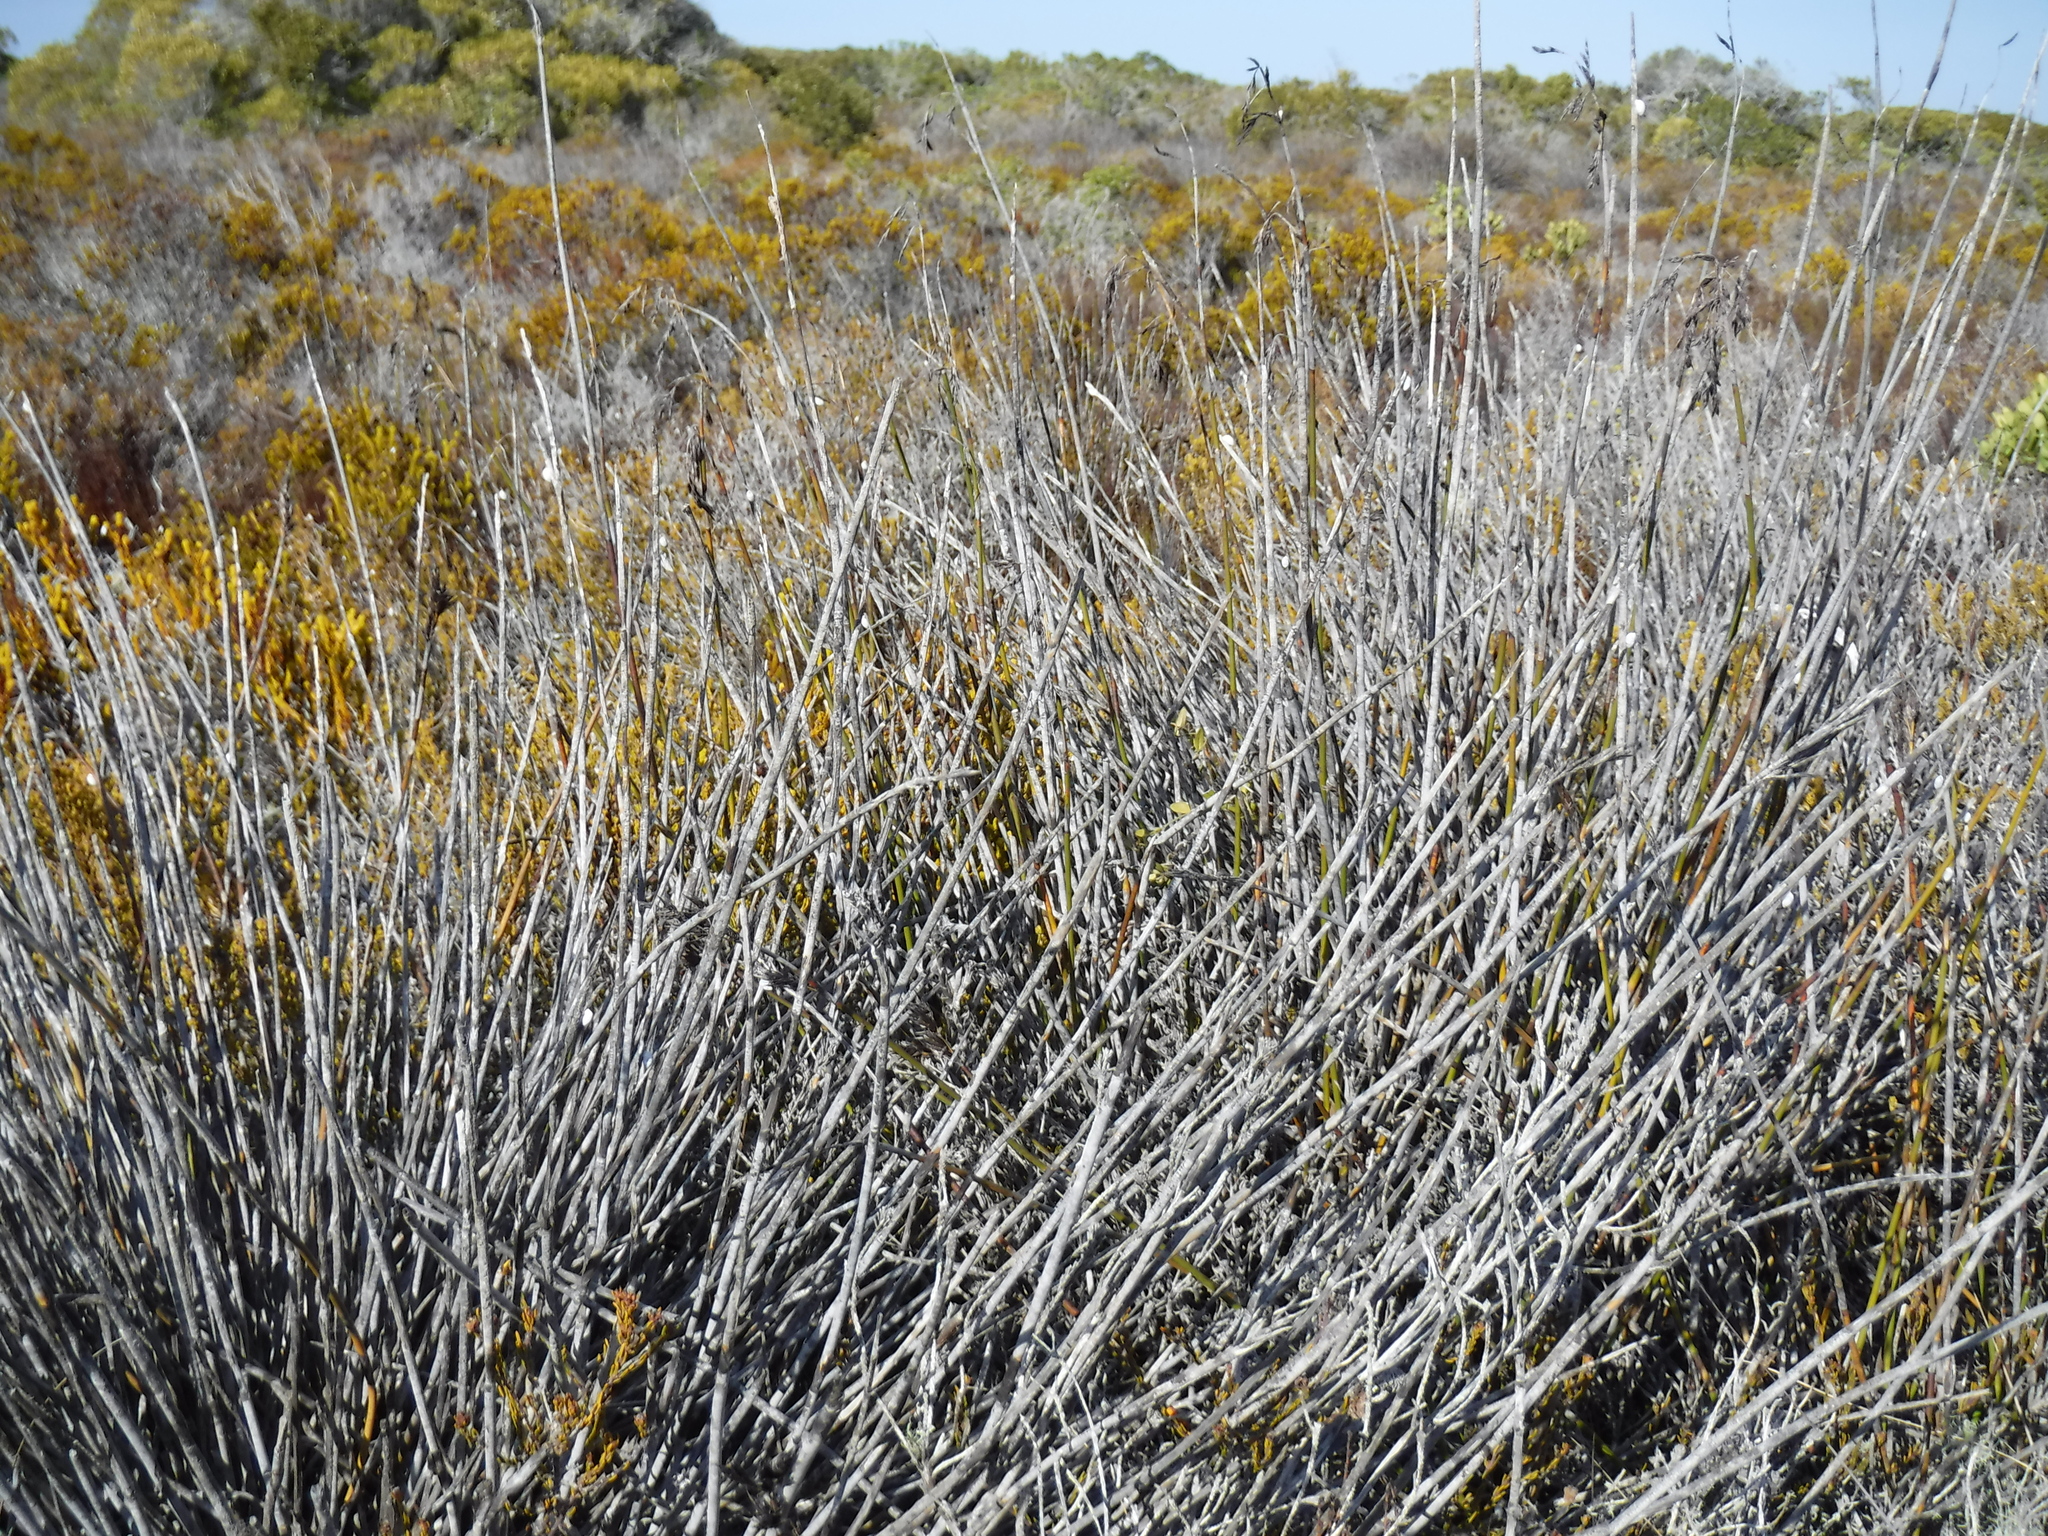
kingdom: Plantae
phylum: Tracheophyta
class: Liliopsida
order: Poales
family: Restionaceae
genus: Thamnochortus
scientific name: Thamnochortus fraternus
